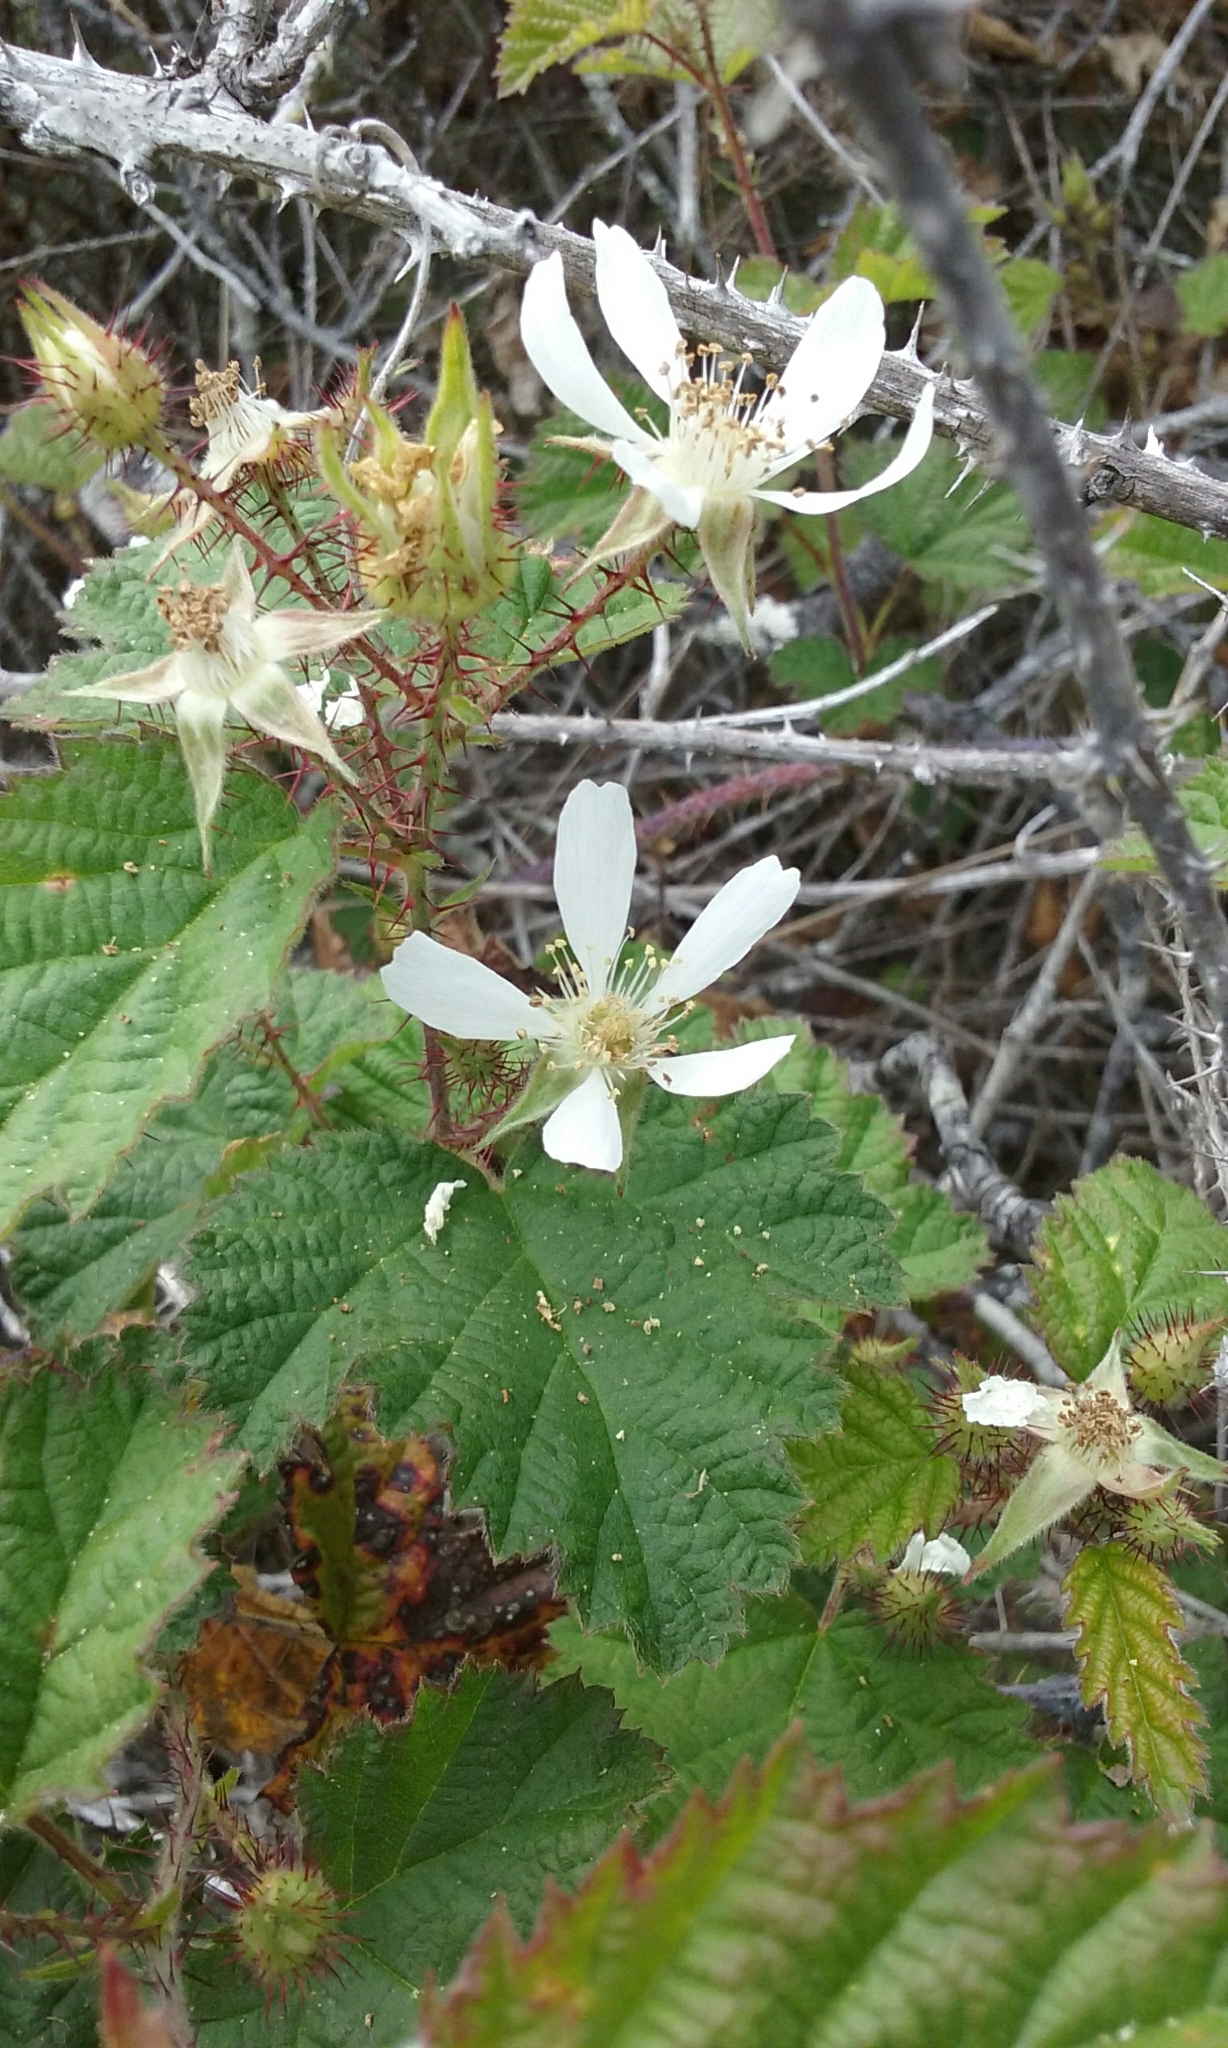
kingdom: Plantae
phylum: Tracheophyta
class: Magnoliopsida
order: Rosales
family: Rosaceae
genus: Rubus
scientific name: Rubus ursinus
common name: Pacific blackberry
